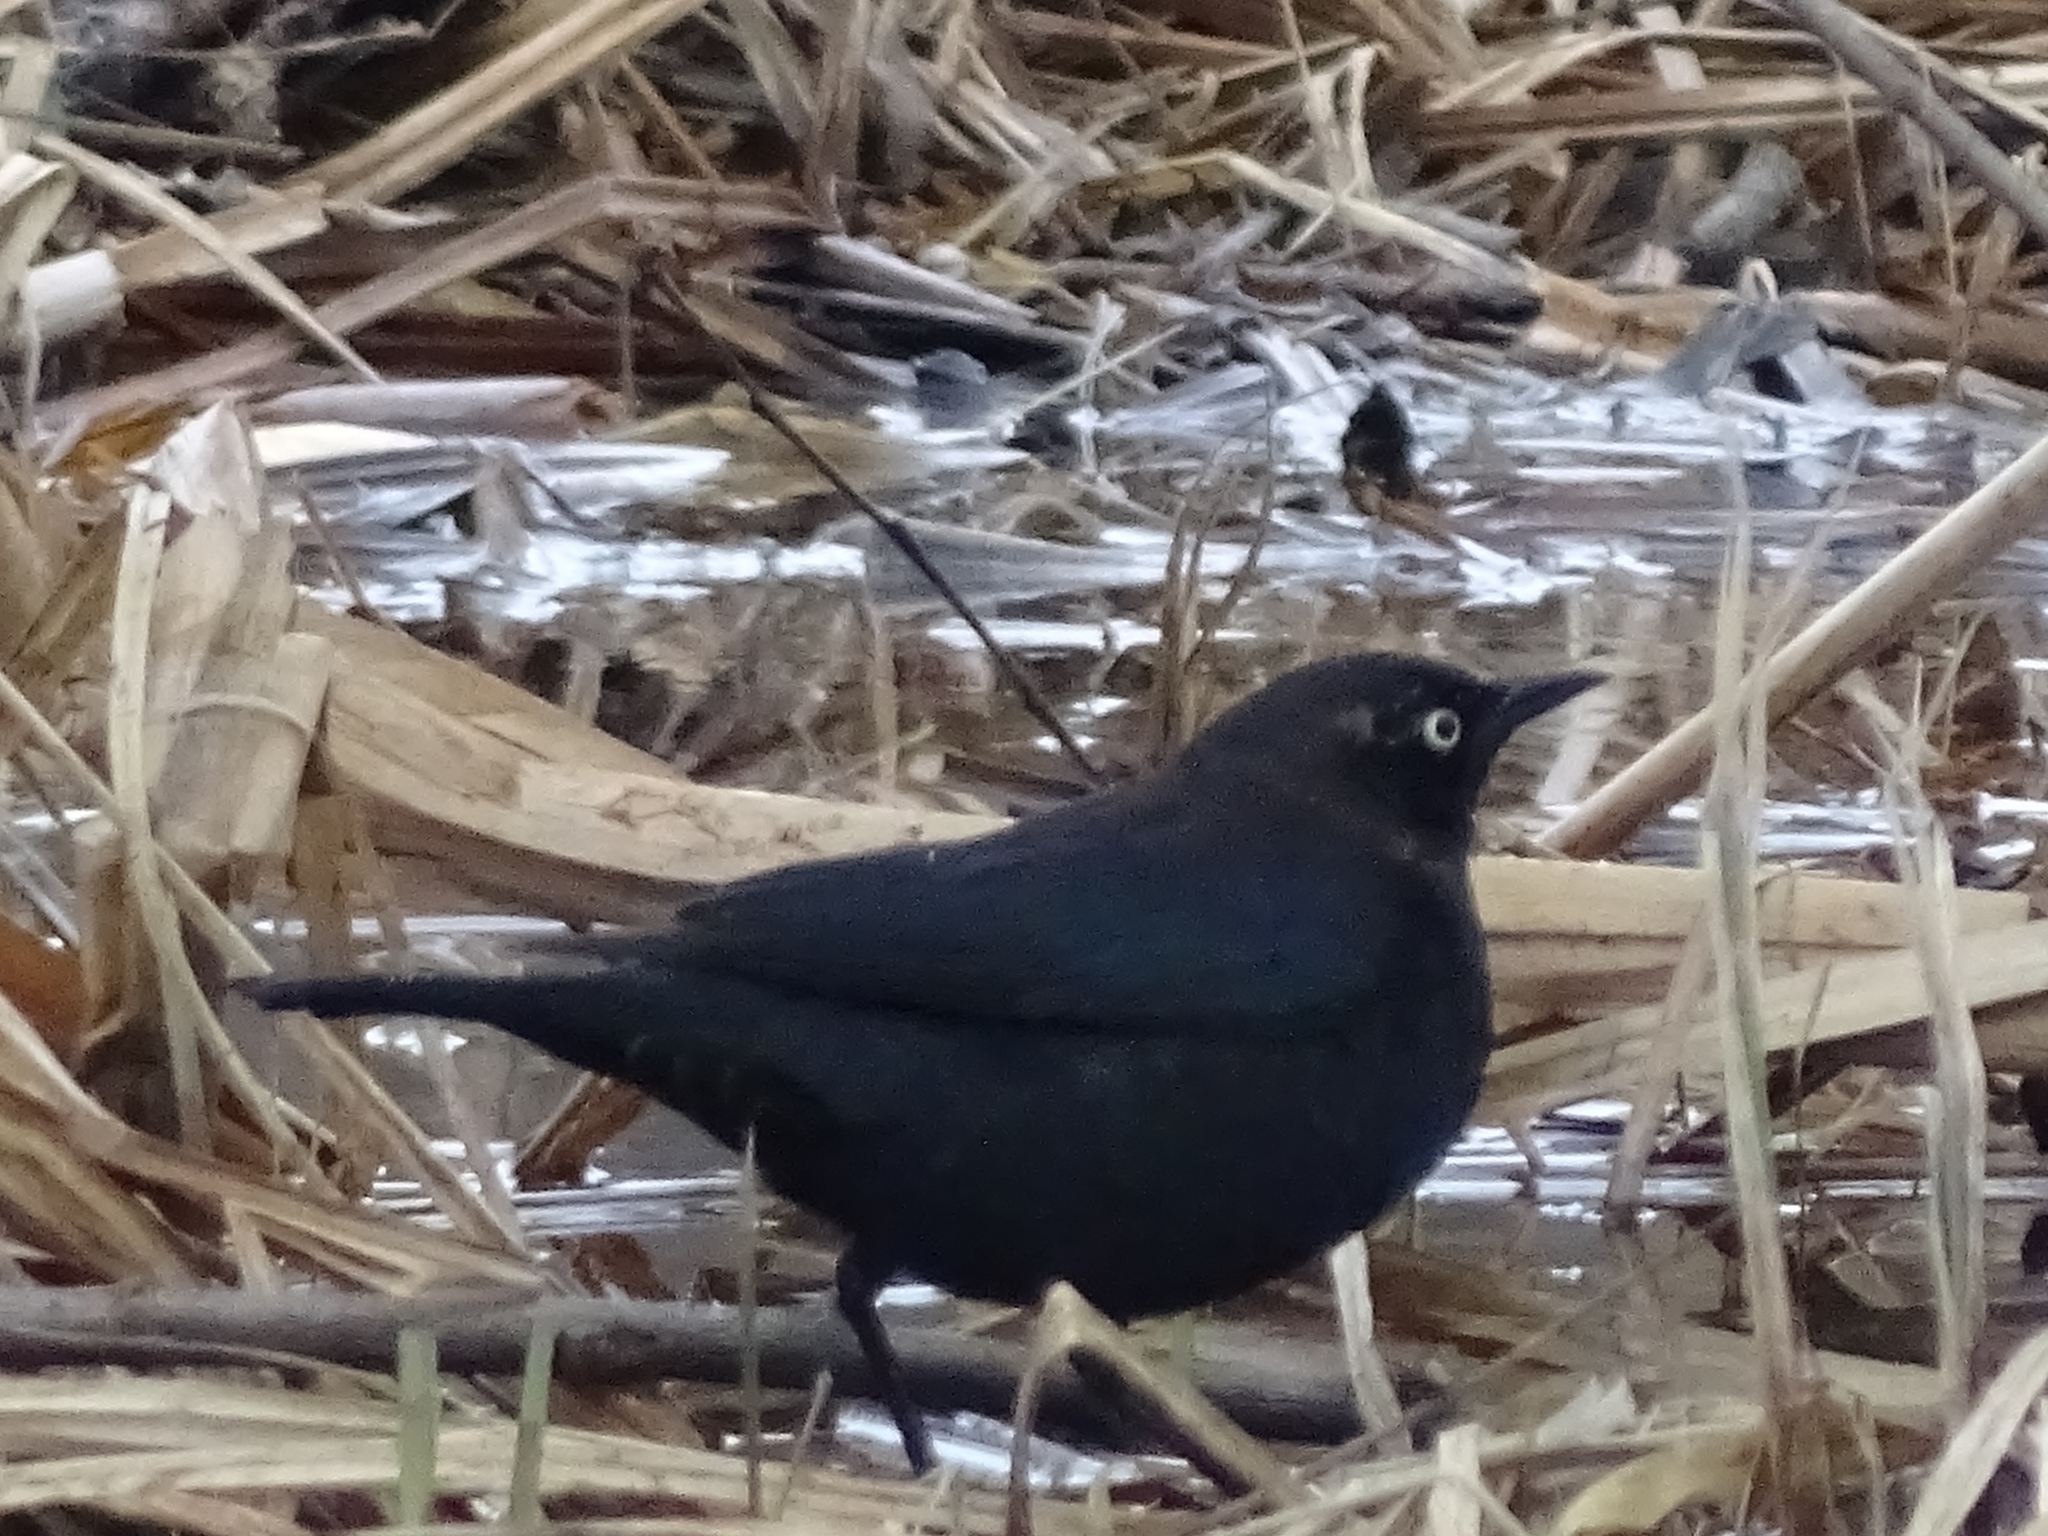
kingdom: Animalia
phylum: Chordata
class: Aves
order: Passeriformes
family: Icteridae
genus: Euphagus
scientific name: Euphagus carolinus
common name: Rusty blackbird
